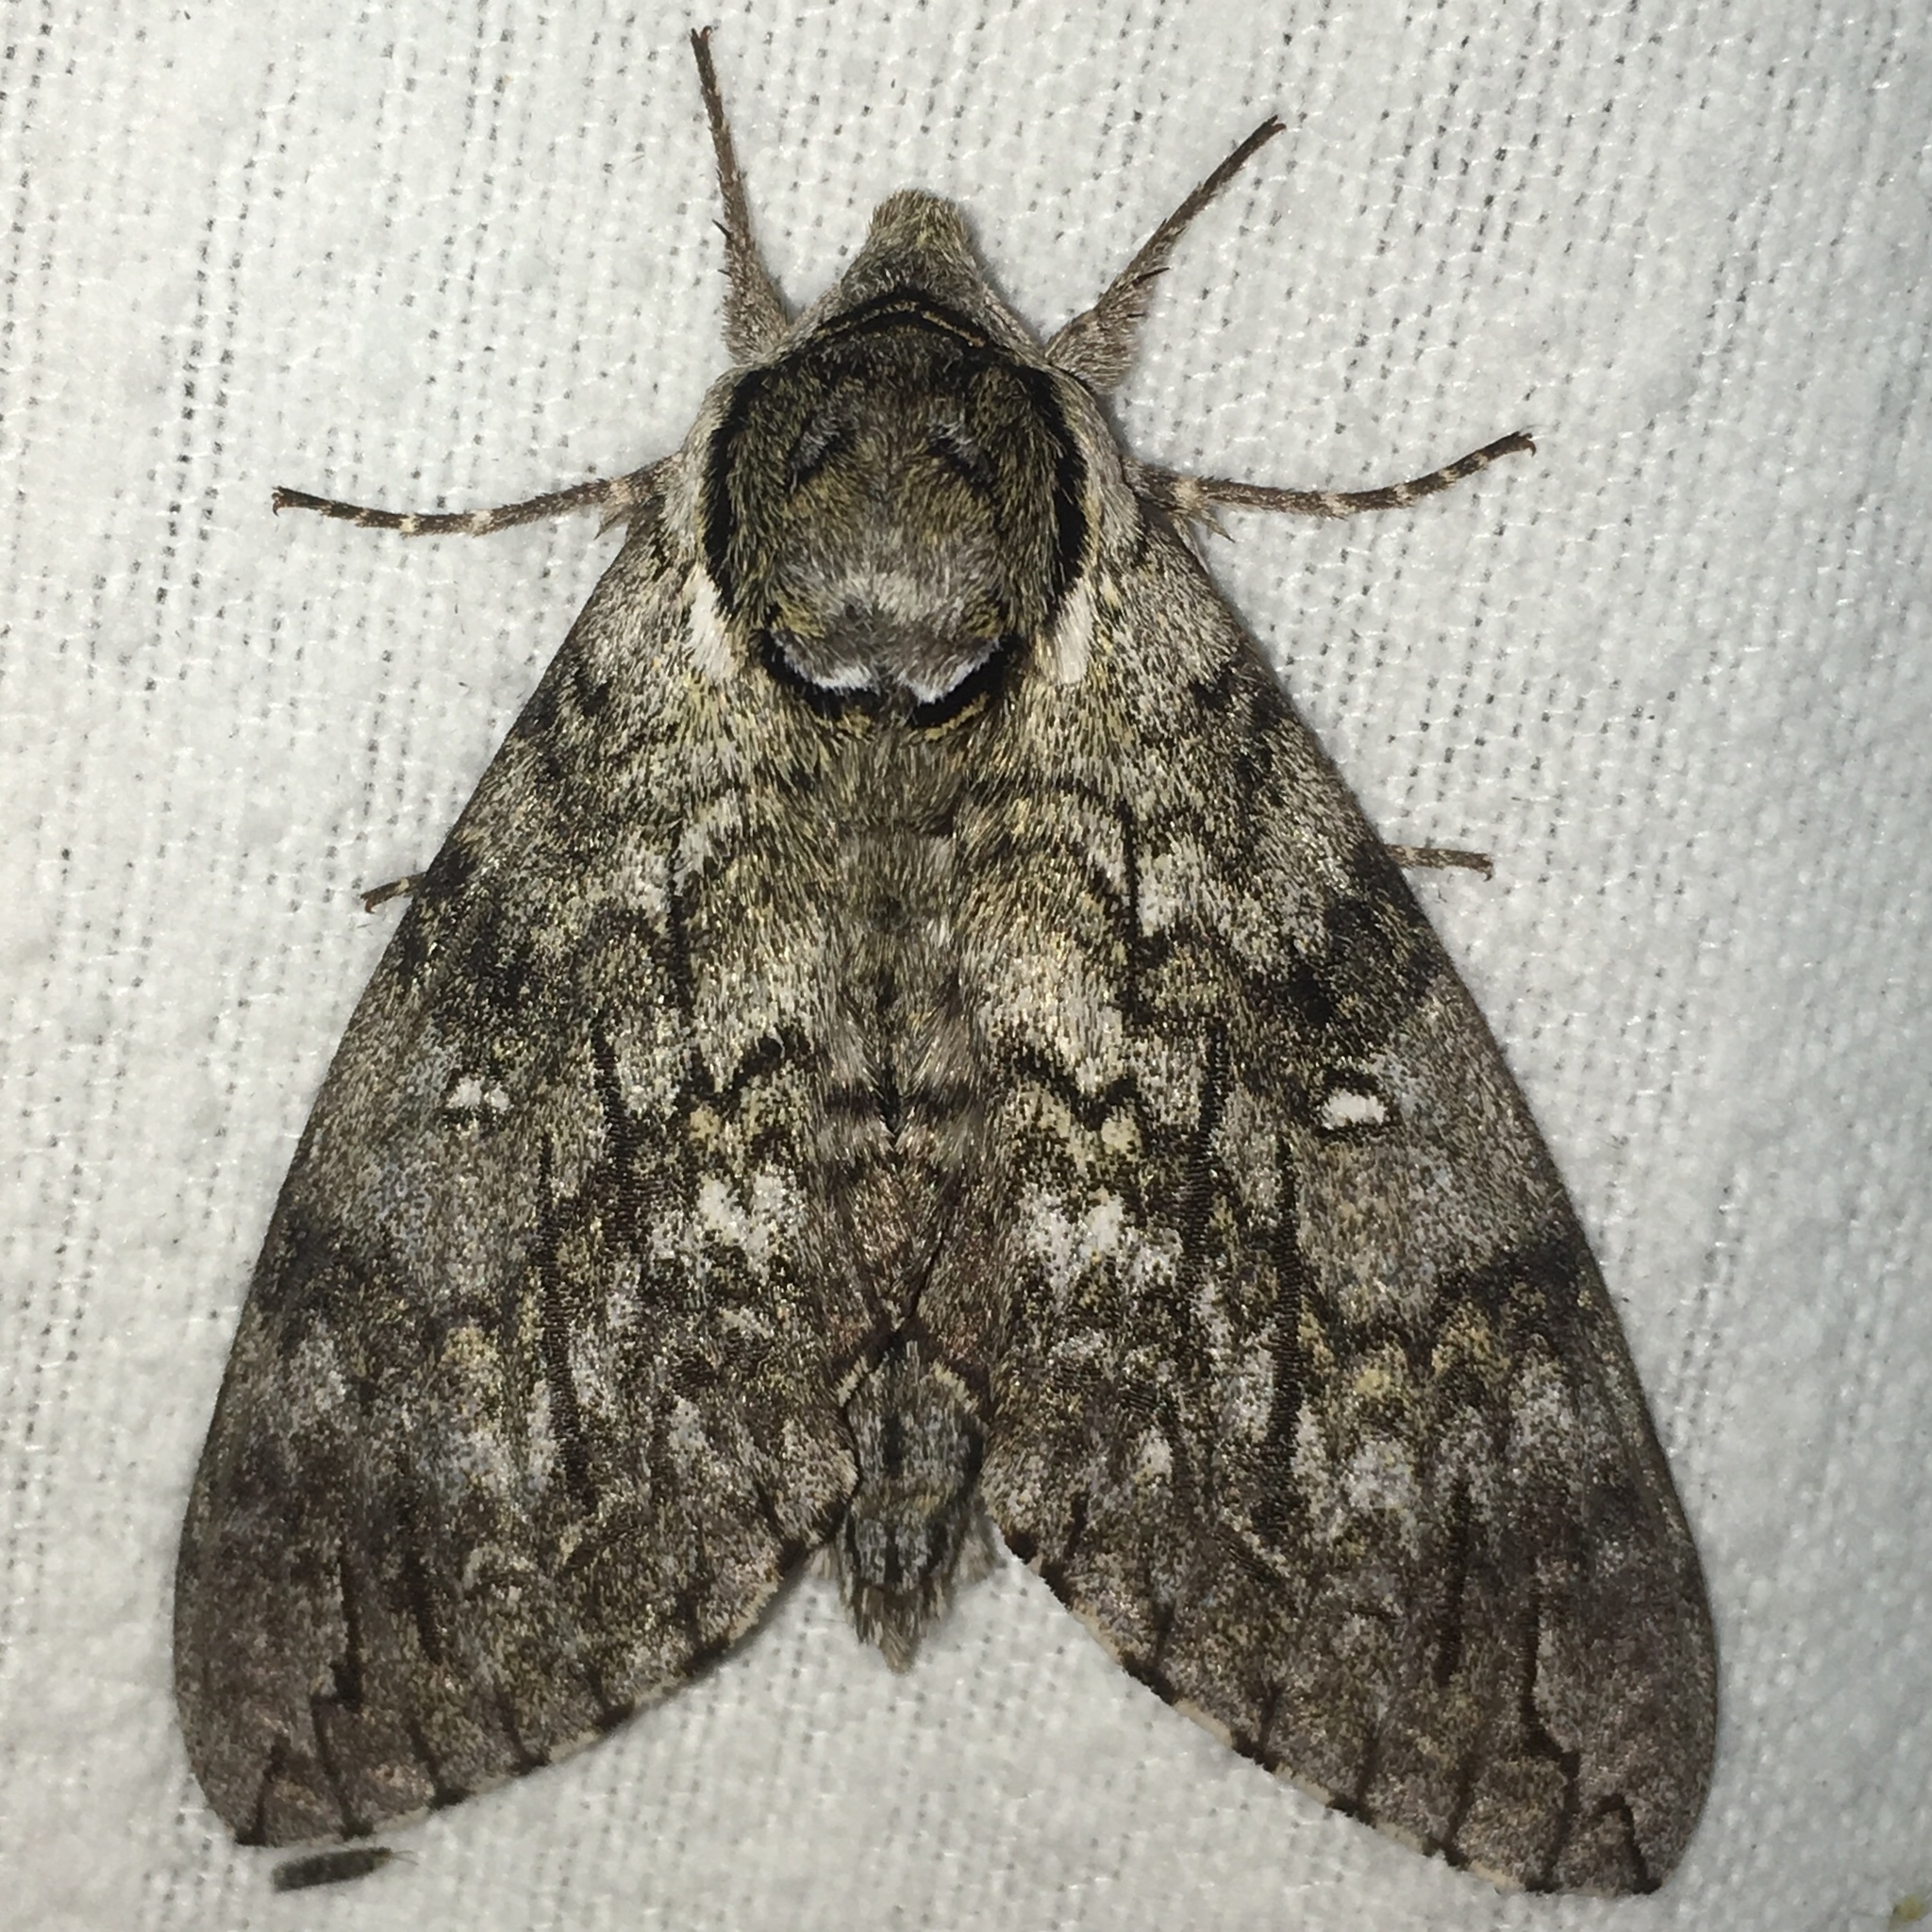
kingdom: Animalia
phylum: Arthropoda
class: Insecta
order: Lepidoptera
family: Sphingidae
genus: Ceratomia
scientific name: Ceratomia undulosa
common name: Waved sphinx
